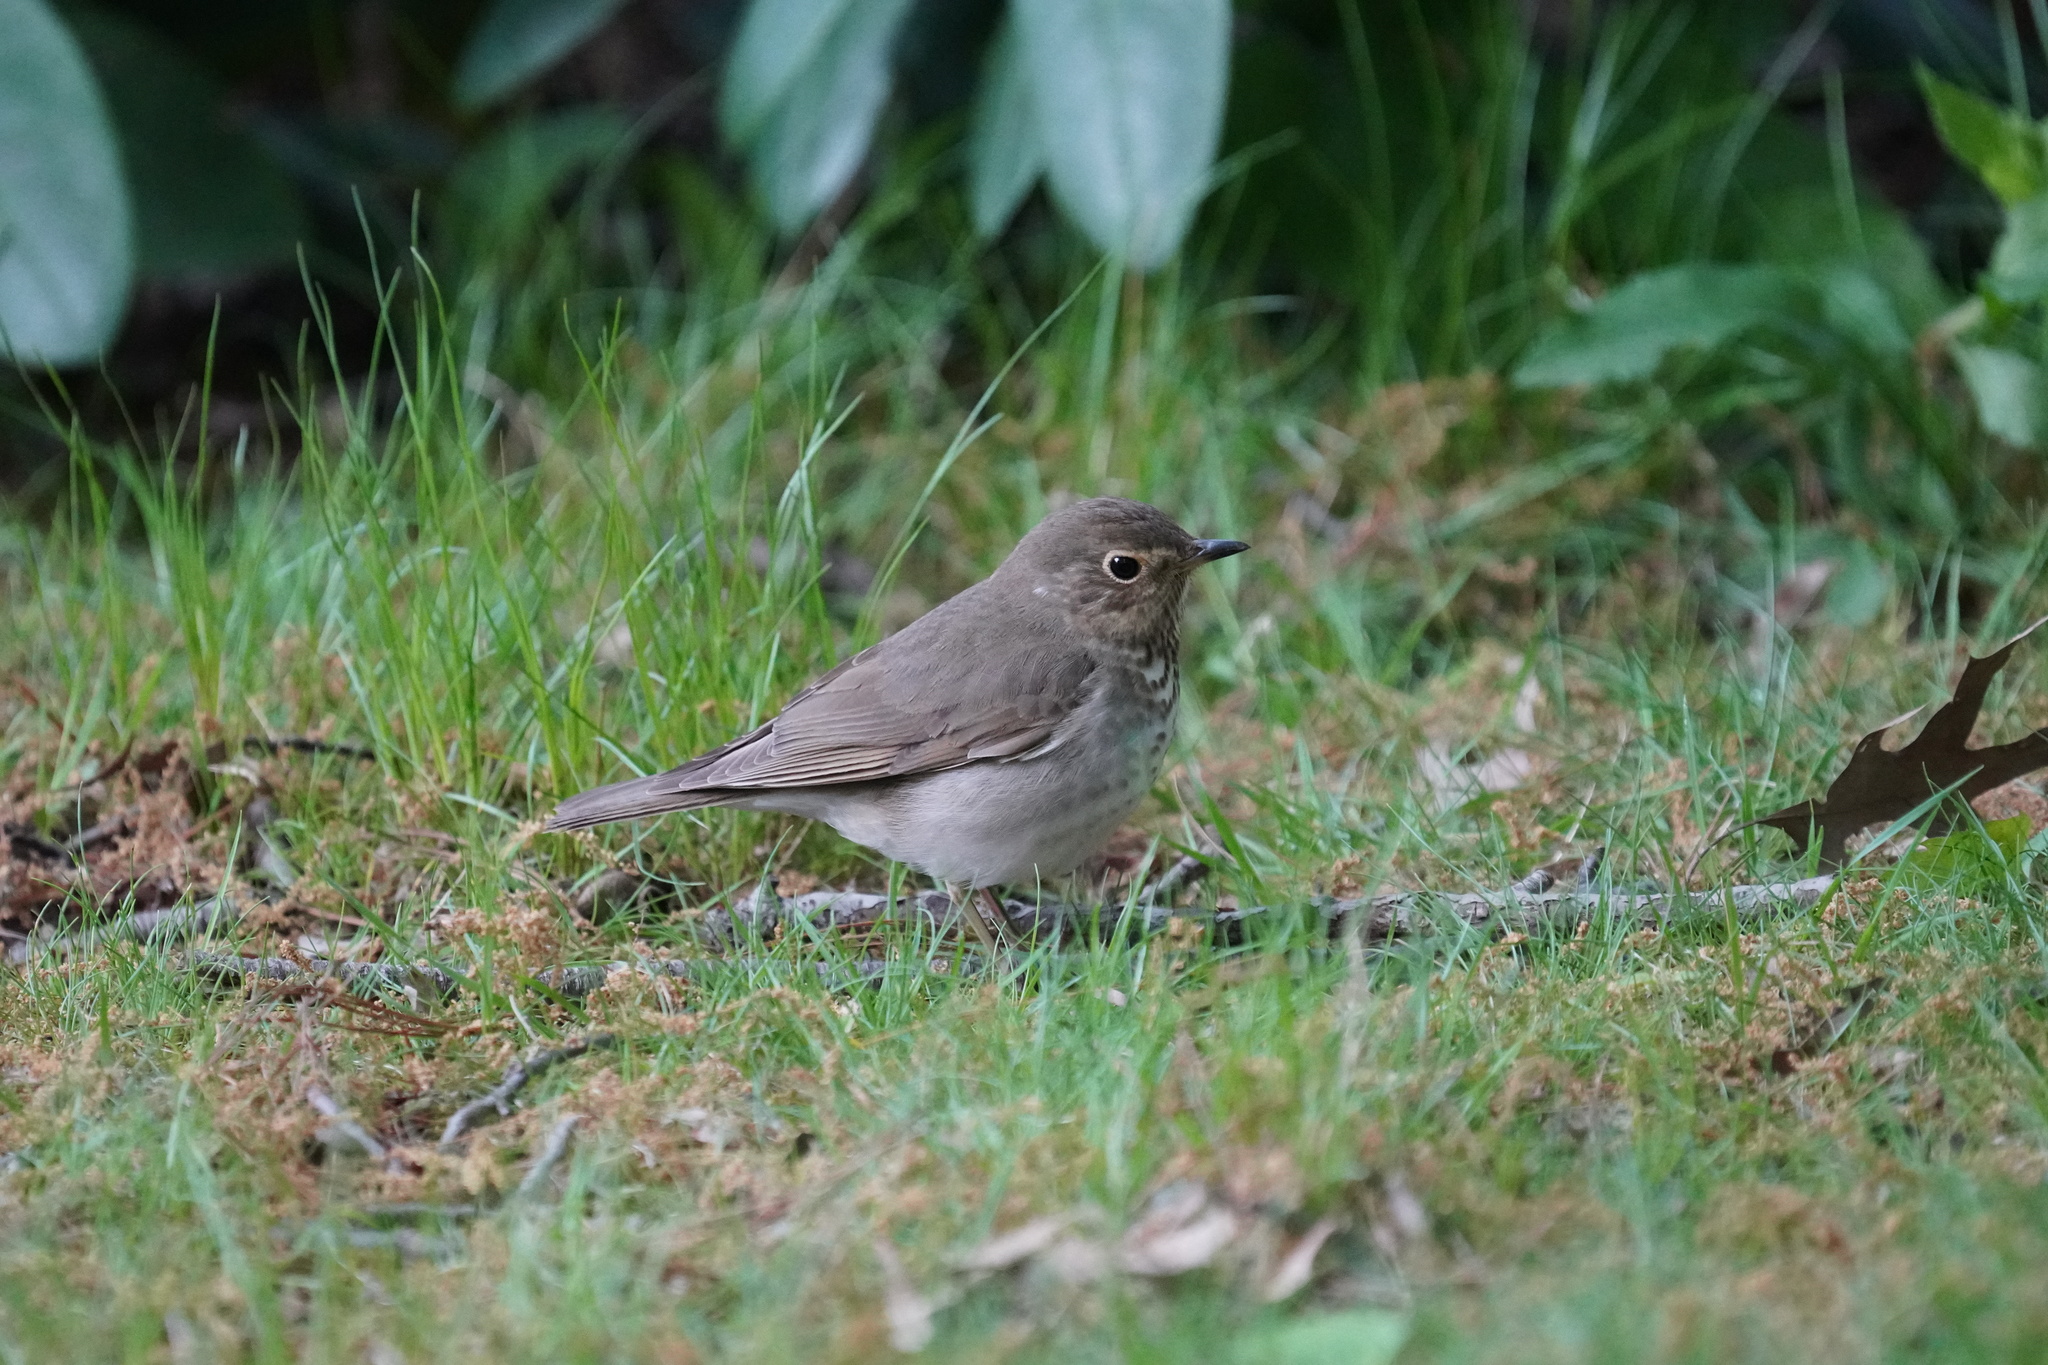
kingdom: Animalia
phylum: Chordata
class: Aves
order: Passeriformes
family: Turdidae
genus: Catharus
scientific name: Catharus ustulatus
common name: Swainson's thrush
